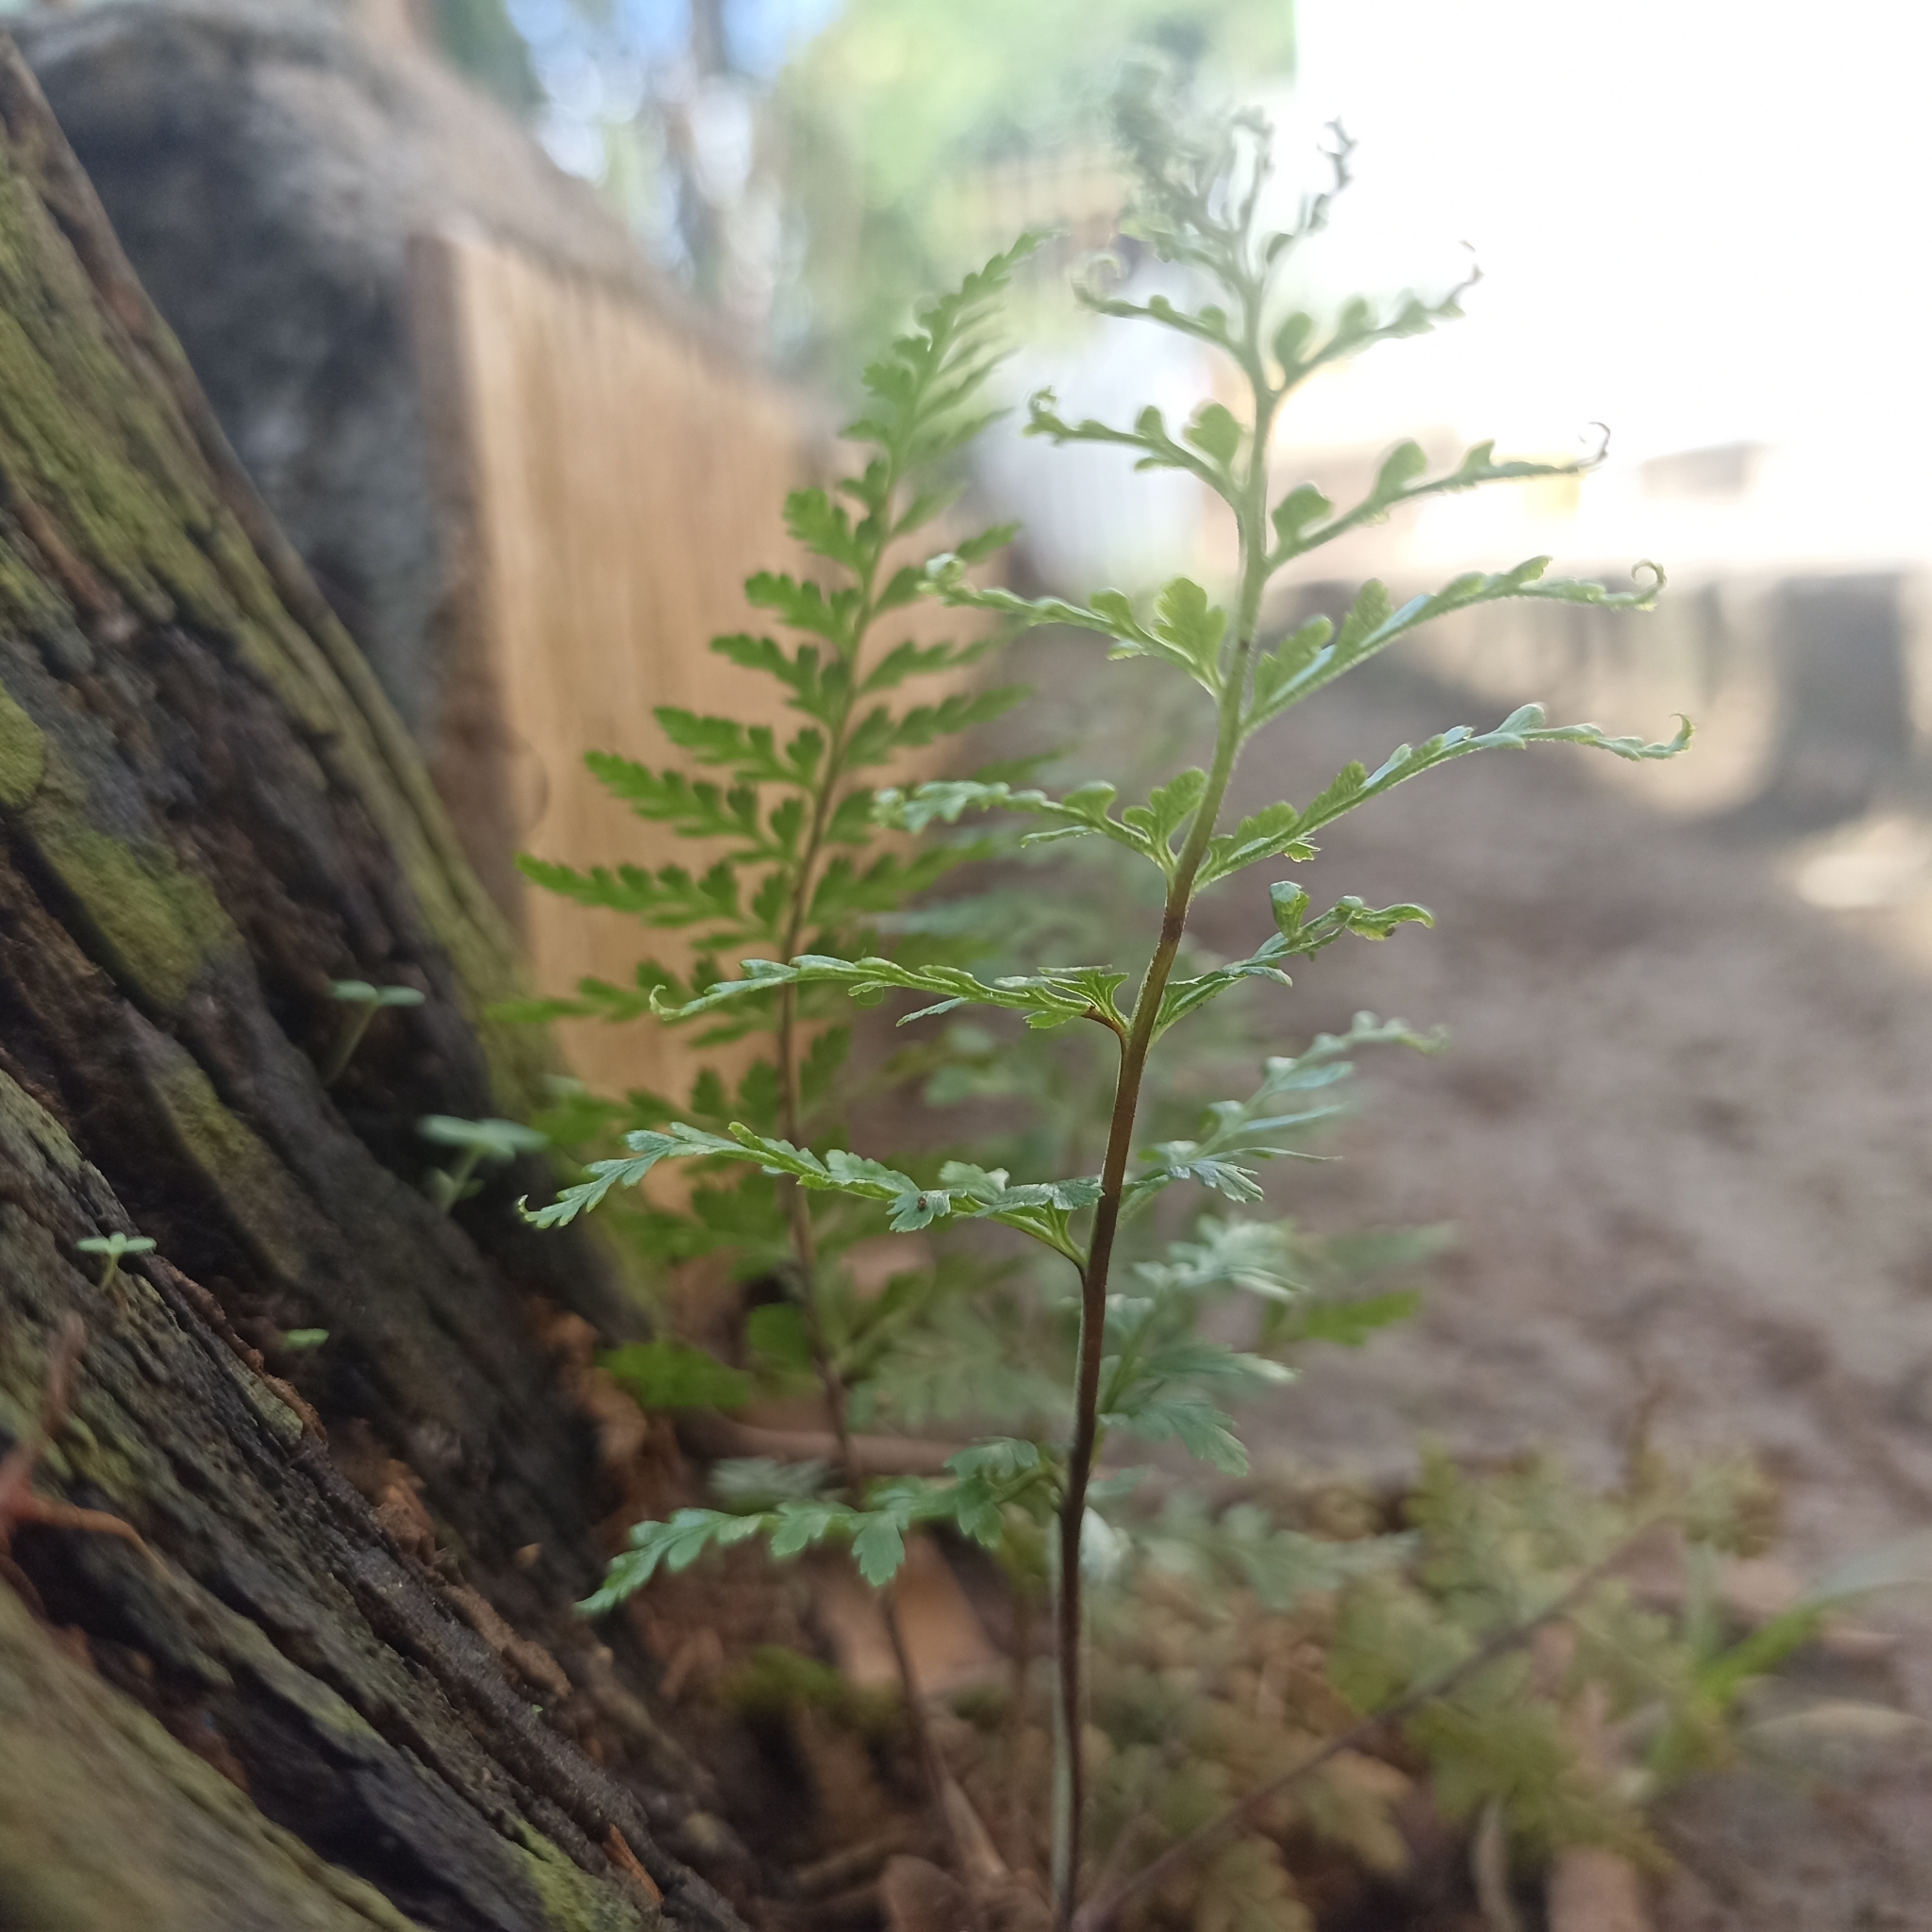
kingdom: Plantae
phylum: Tracheophyta
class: Polypodiopsida
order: Polypodiales
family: Pteridaceae
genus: Pityrogramma
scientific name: Pityrogramma calomelanos
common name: Dixie silverback fern
